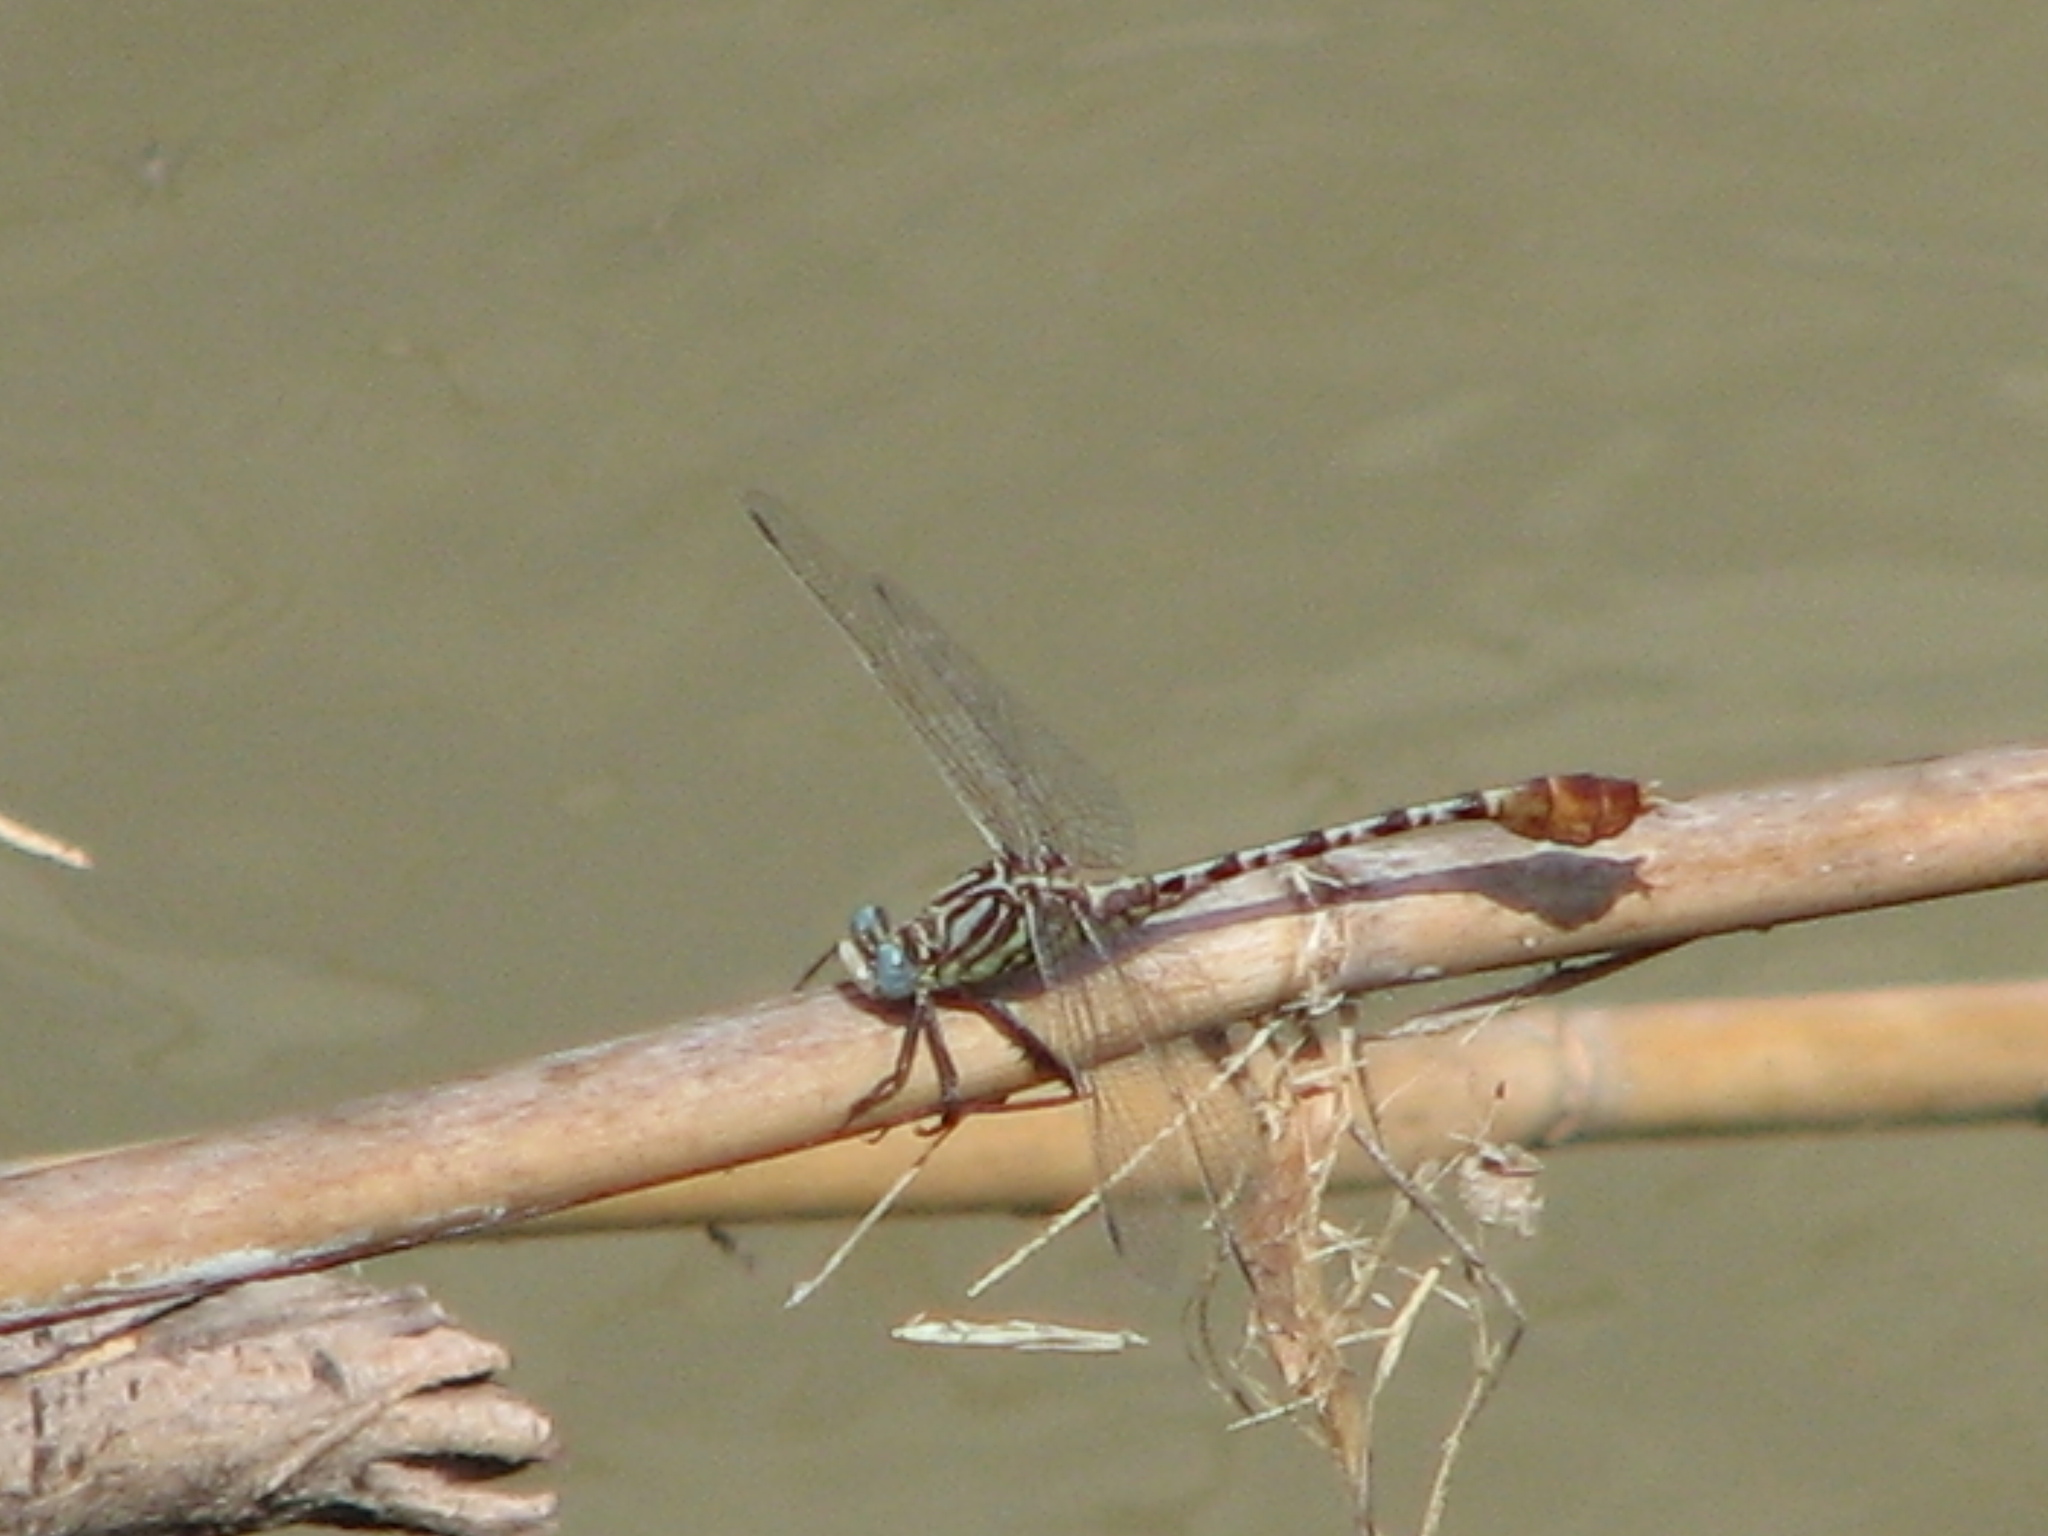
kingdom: Animalia
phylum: Arthropoda
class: Insecta
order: Odonata
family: Gomphidae
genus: Dromogomphus
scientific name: Dromogomphus spoliatus
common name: Flag-tailed spinyleg
